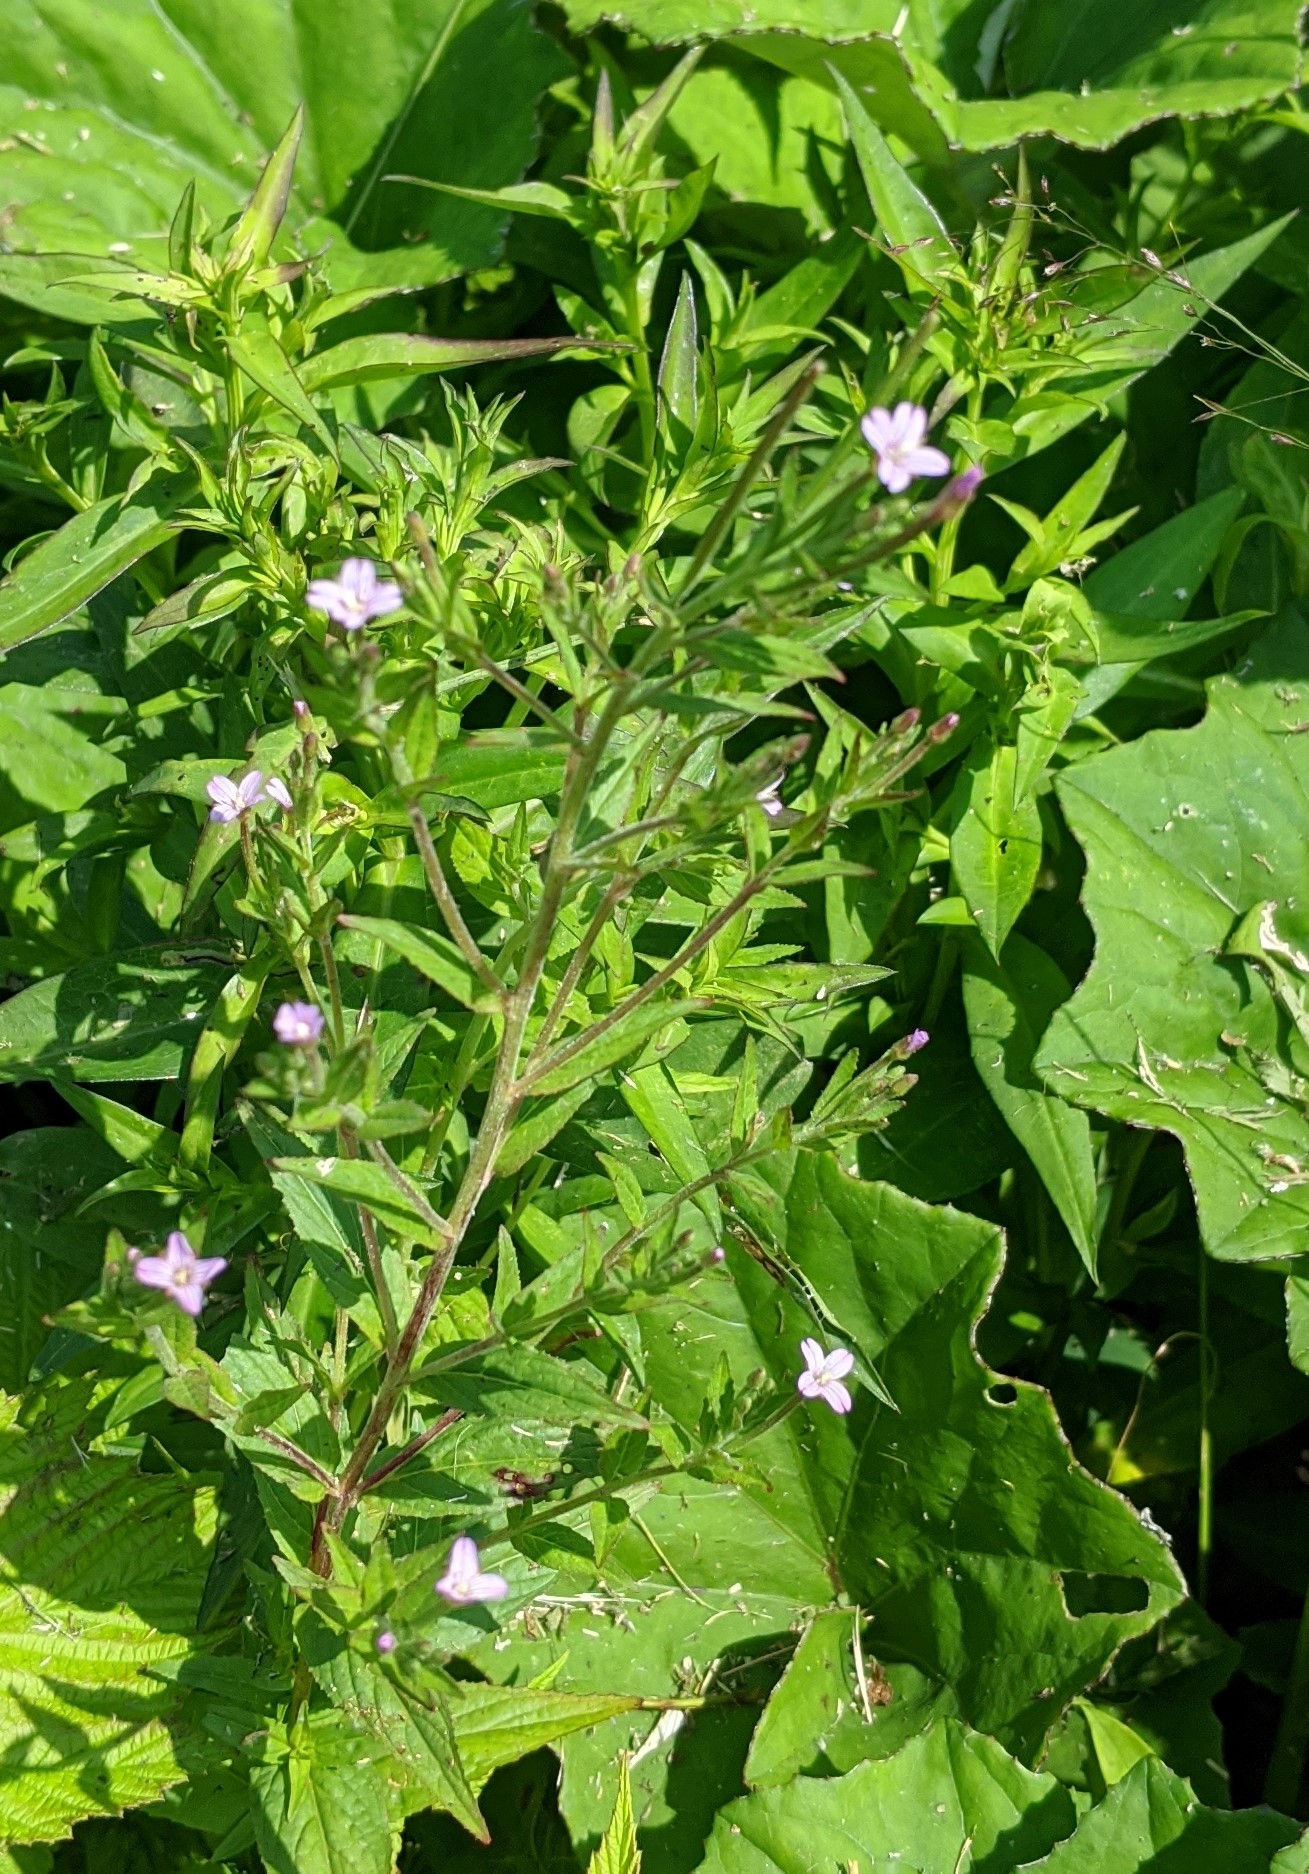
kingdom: Plantae
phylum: Tracheophyta
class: Magnoliopsida
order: Myrtales
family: Onagraceae
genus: Epilobium
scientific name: Epilobium ciliatum
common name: American willowherb
